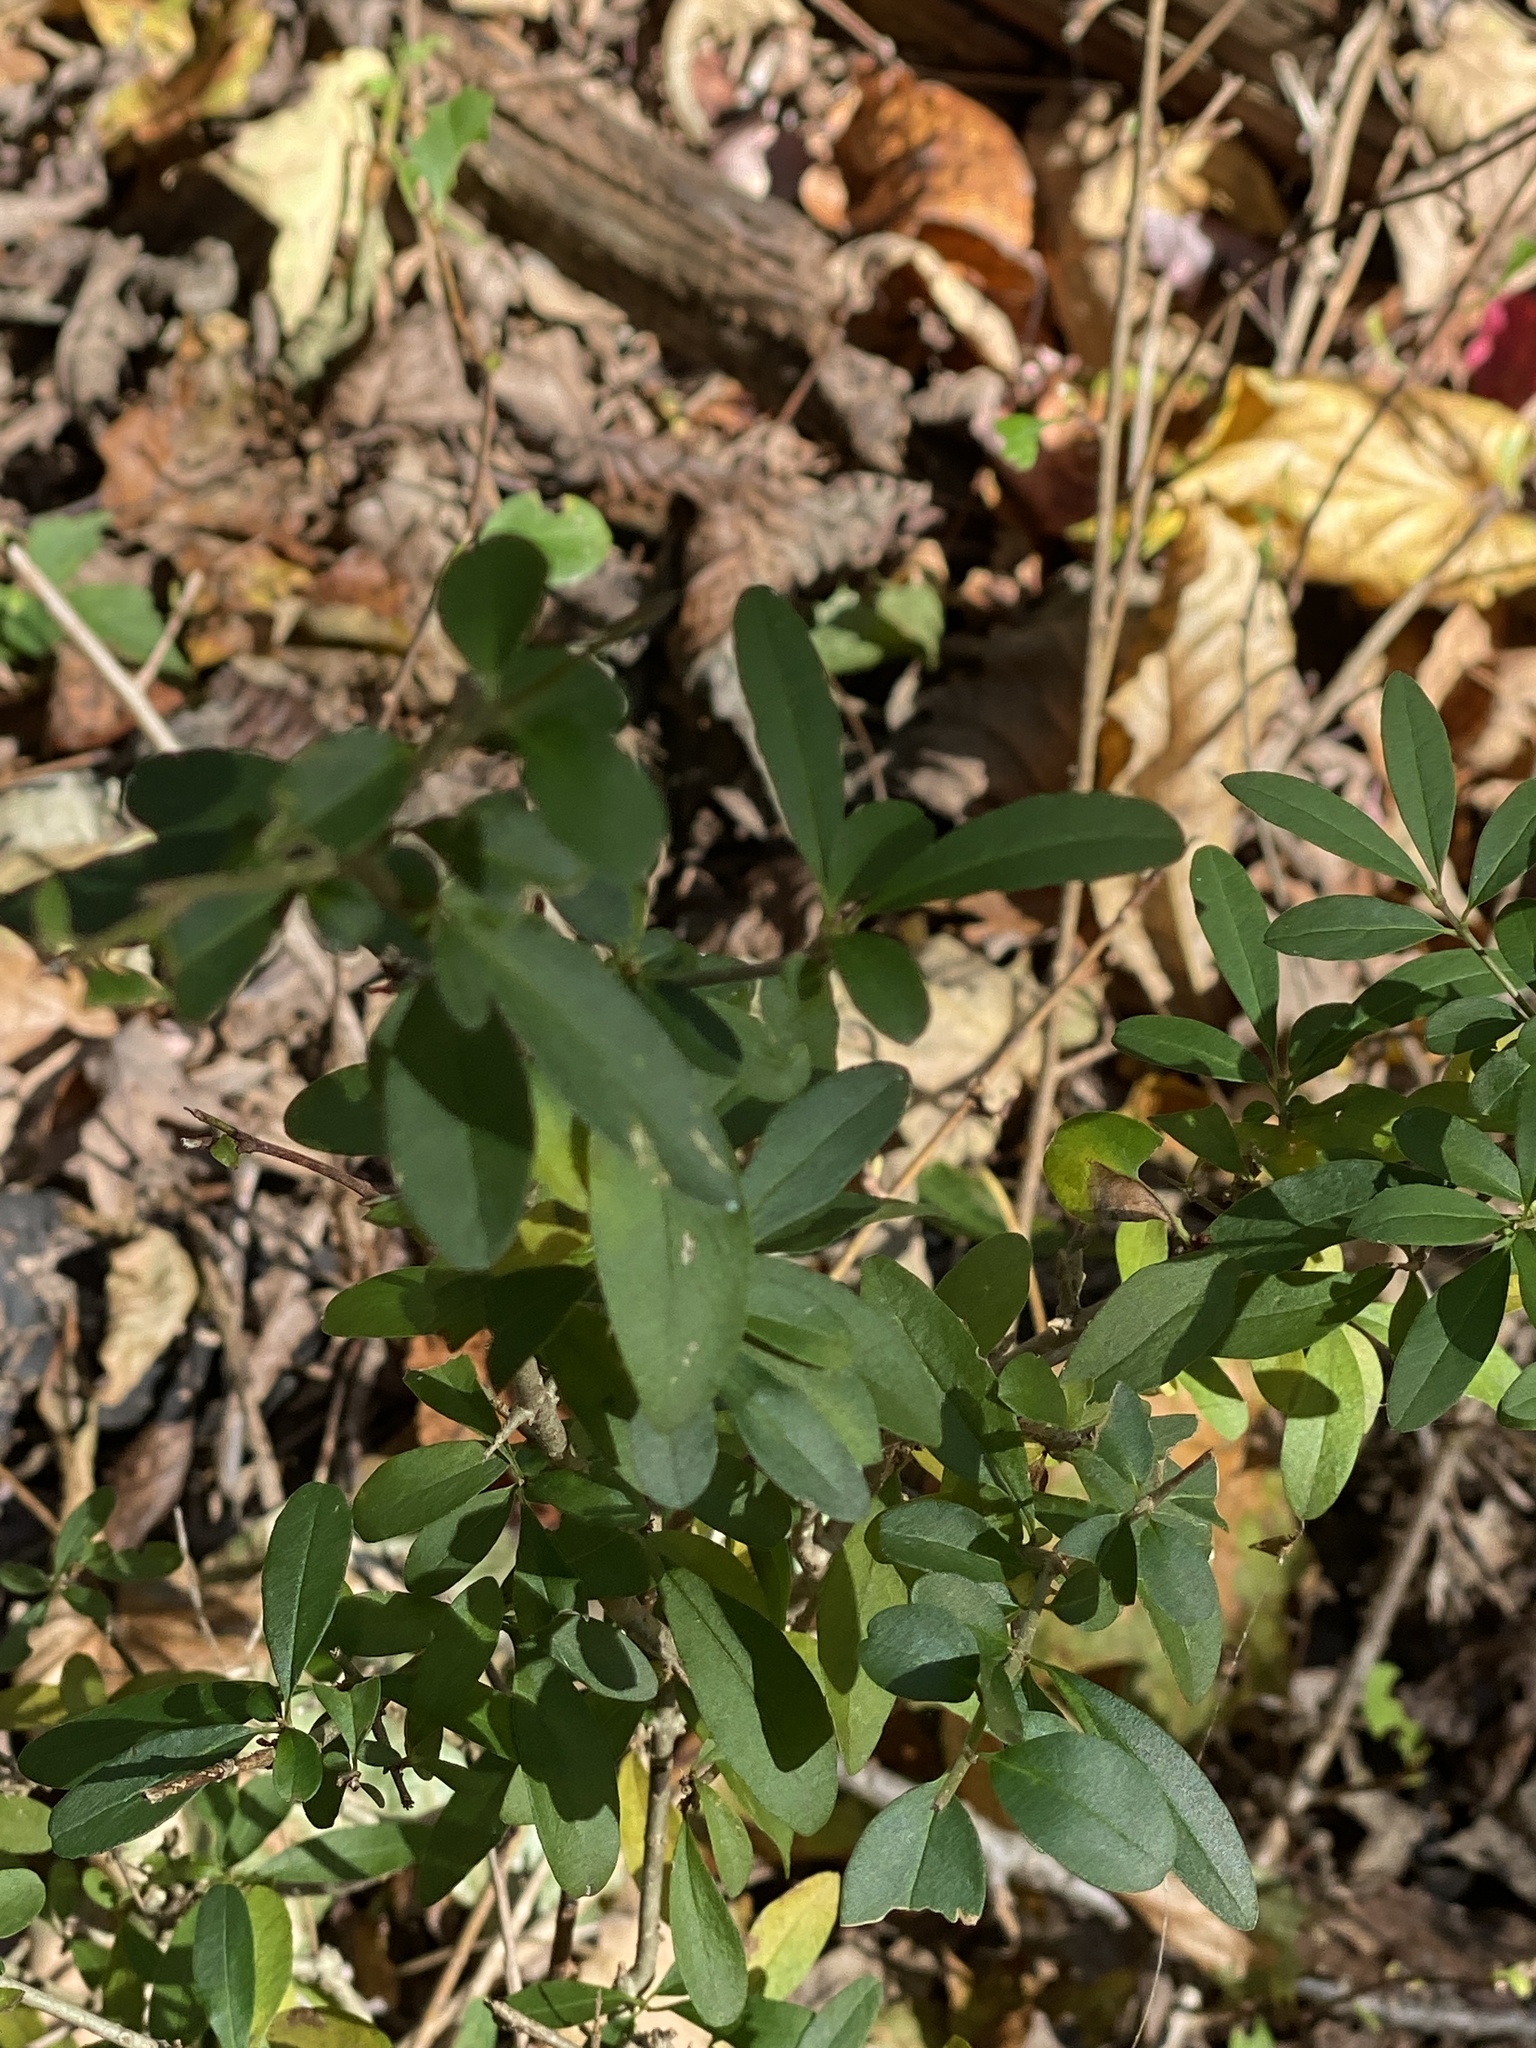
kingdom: Plantae
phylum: Tracheophyta
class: Magnoliopsida
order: Lamiales
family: Oleaceae
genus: Ligustrum
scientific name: Ligustrum obtusifolium
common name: Border privet
